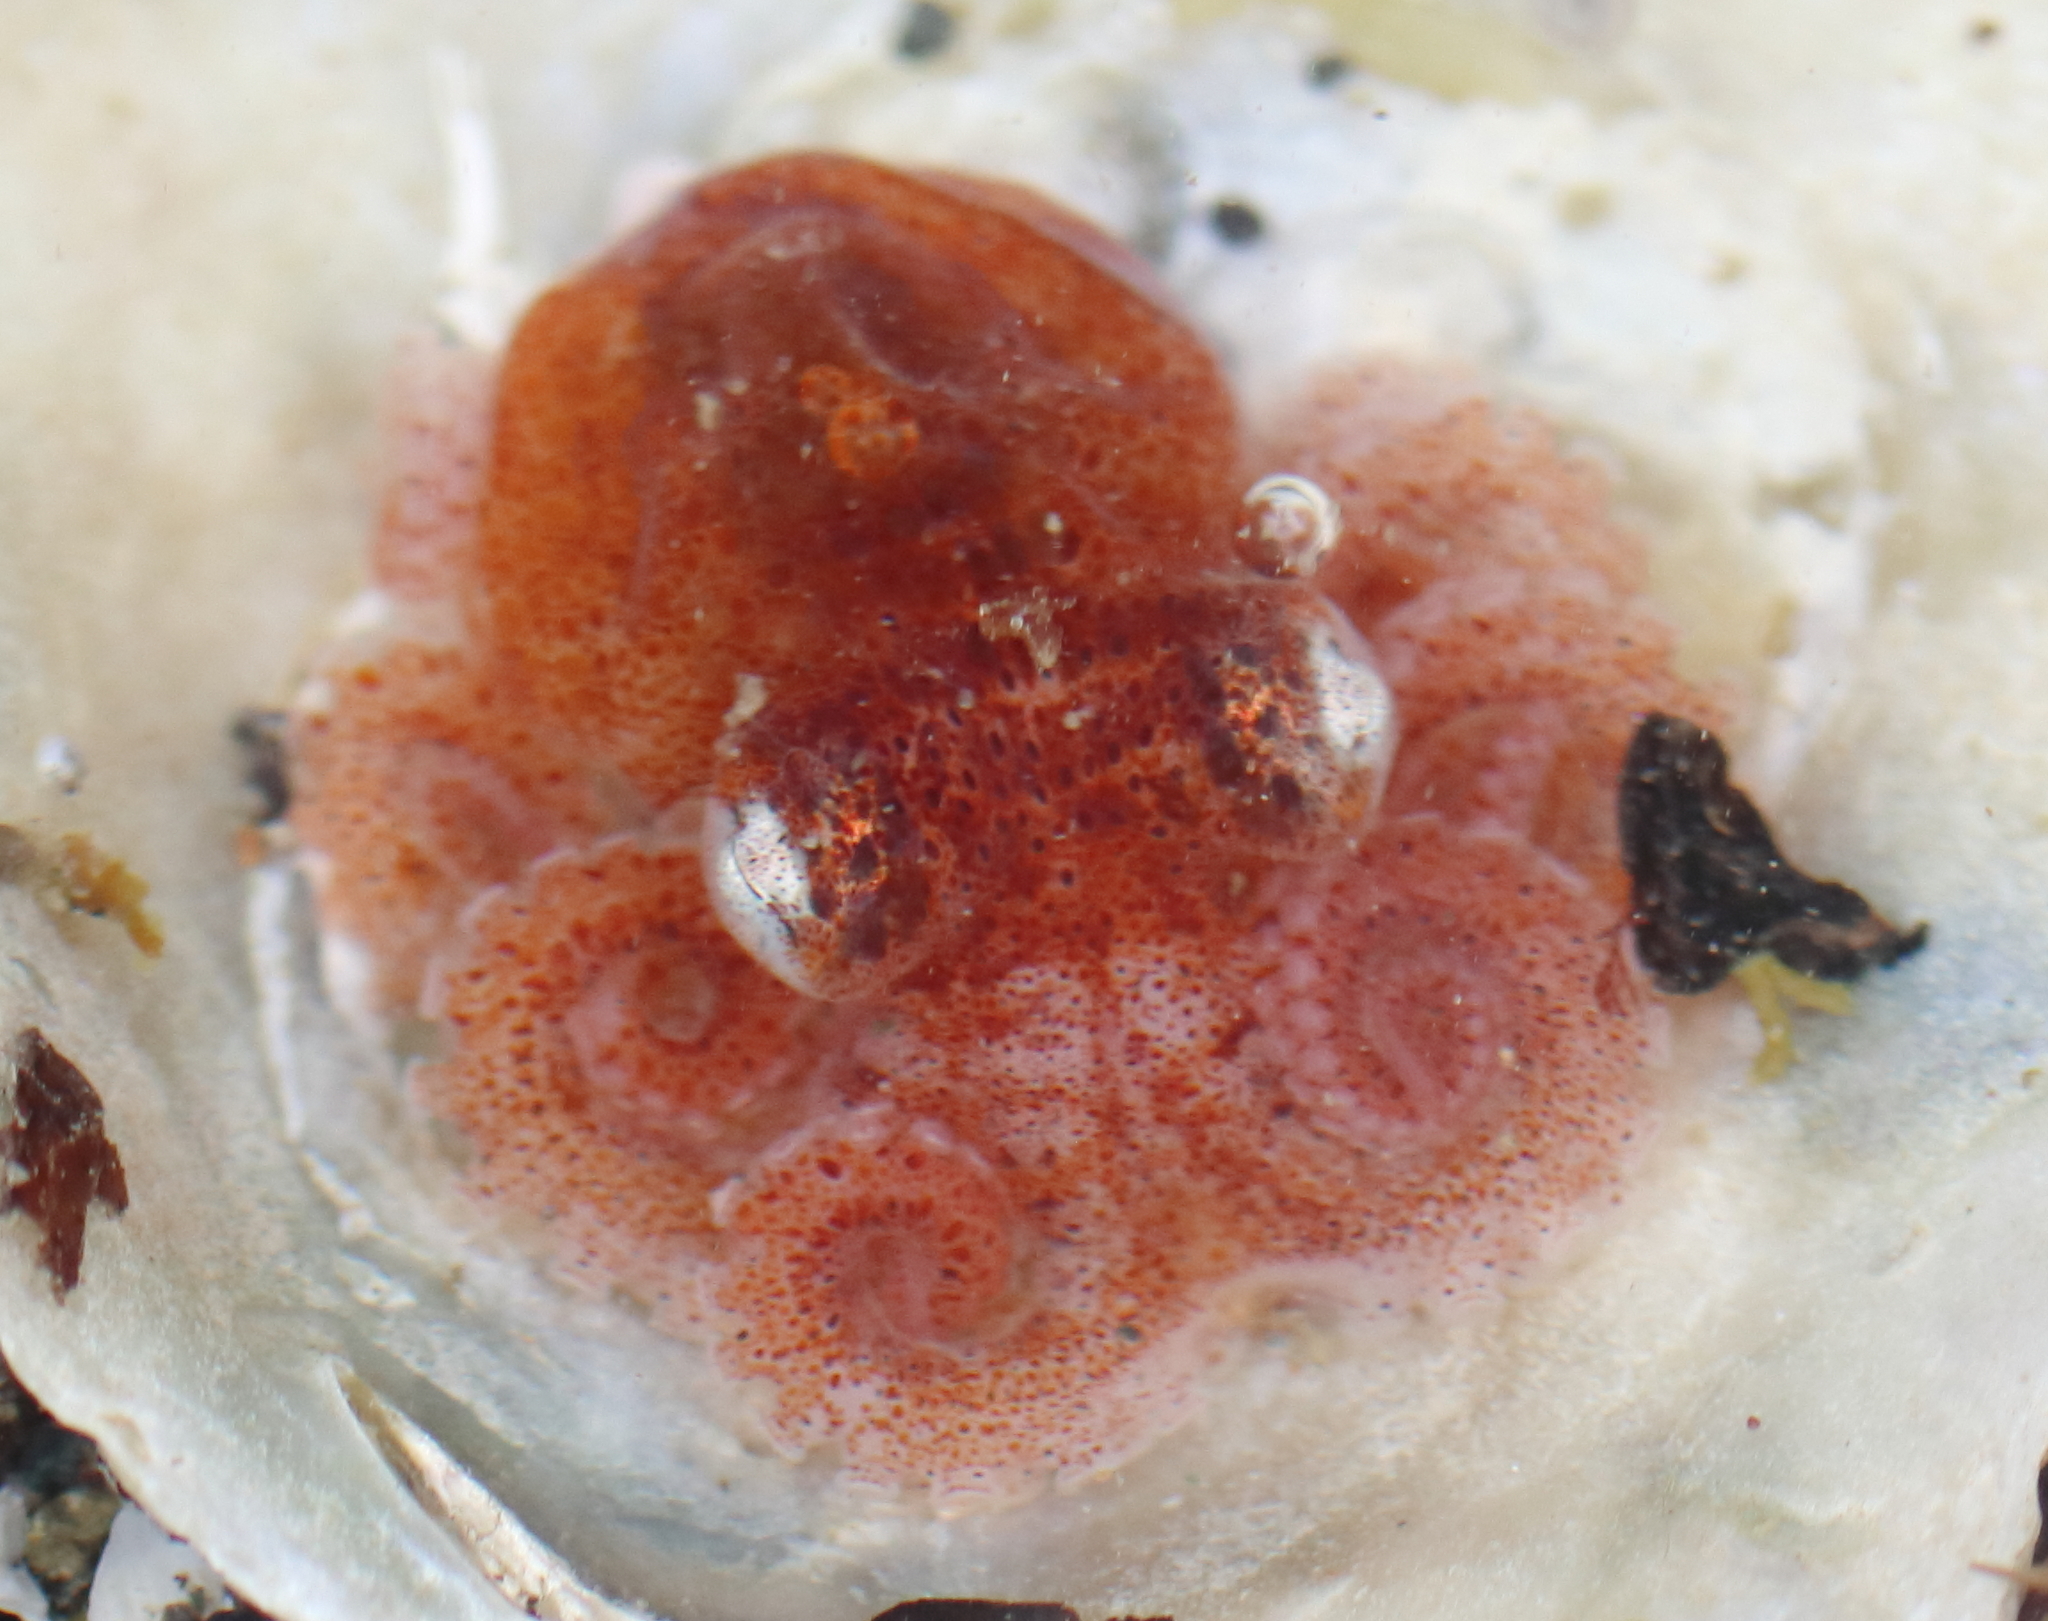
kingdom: Animalia
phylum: Mollusca
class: Cephalopoda
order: Octopoda
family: Enteroctopodidae
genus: Enteroctopus
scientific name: Enteroctopus dofleini
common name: Giant north pacific octopus
